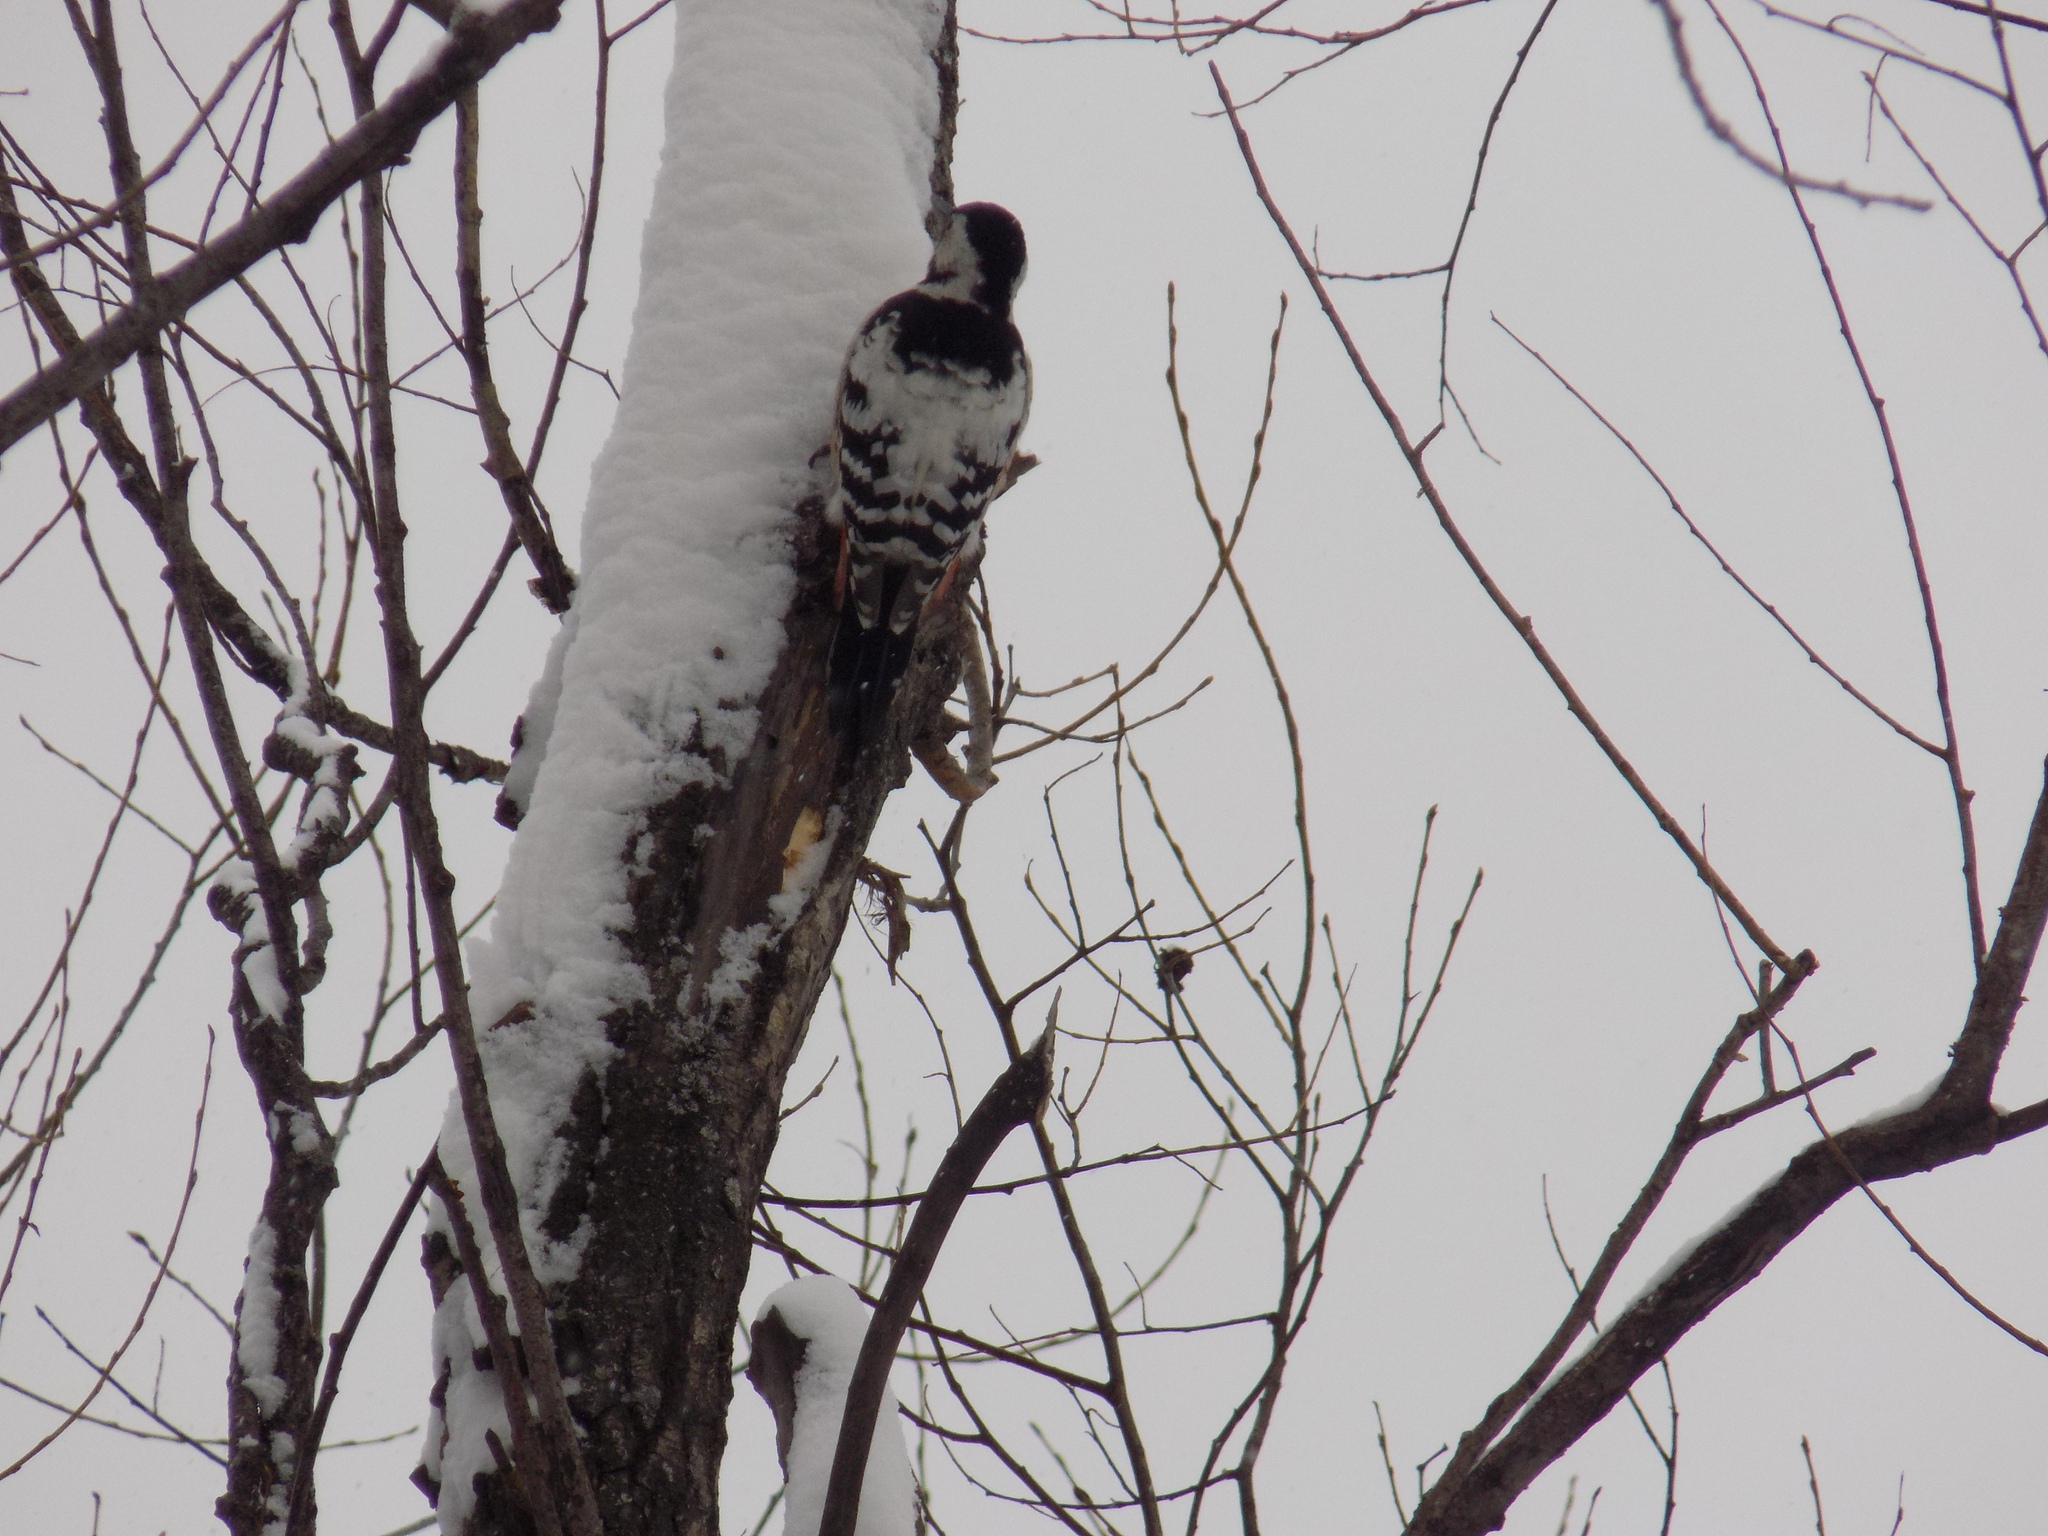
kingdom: Animalia
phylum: Chordata
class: Aves
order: Piciformes
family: Picidae
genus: Dendrocopos
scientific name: Dendrocopos leucotos
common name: White-backed woodpecker
